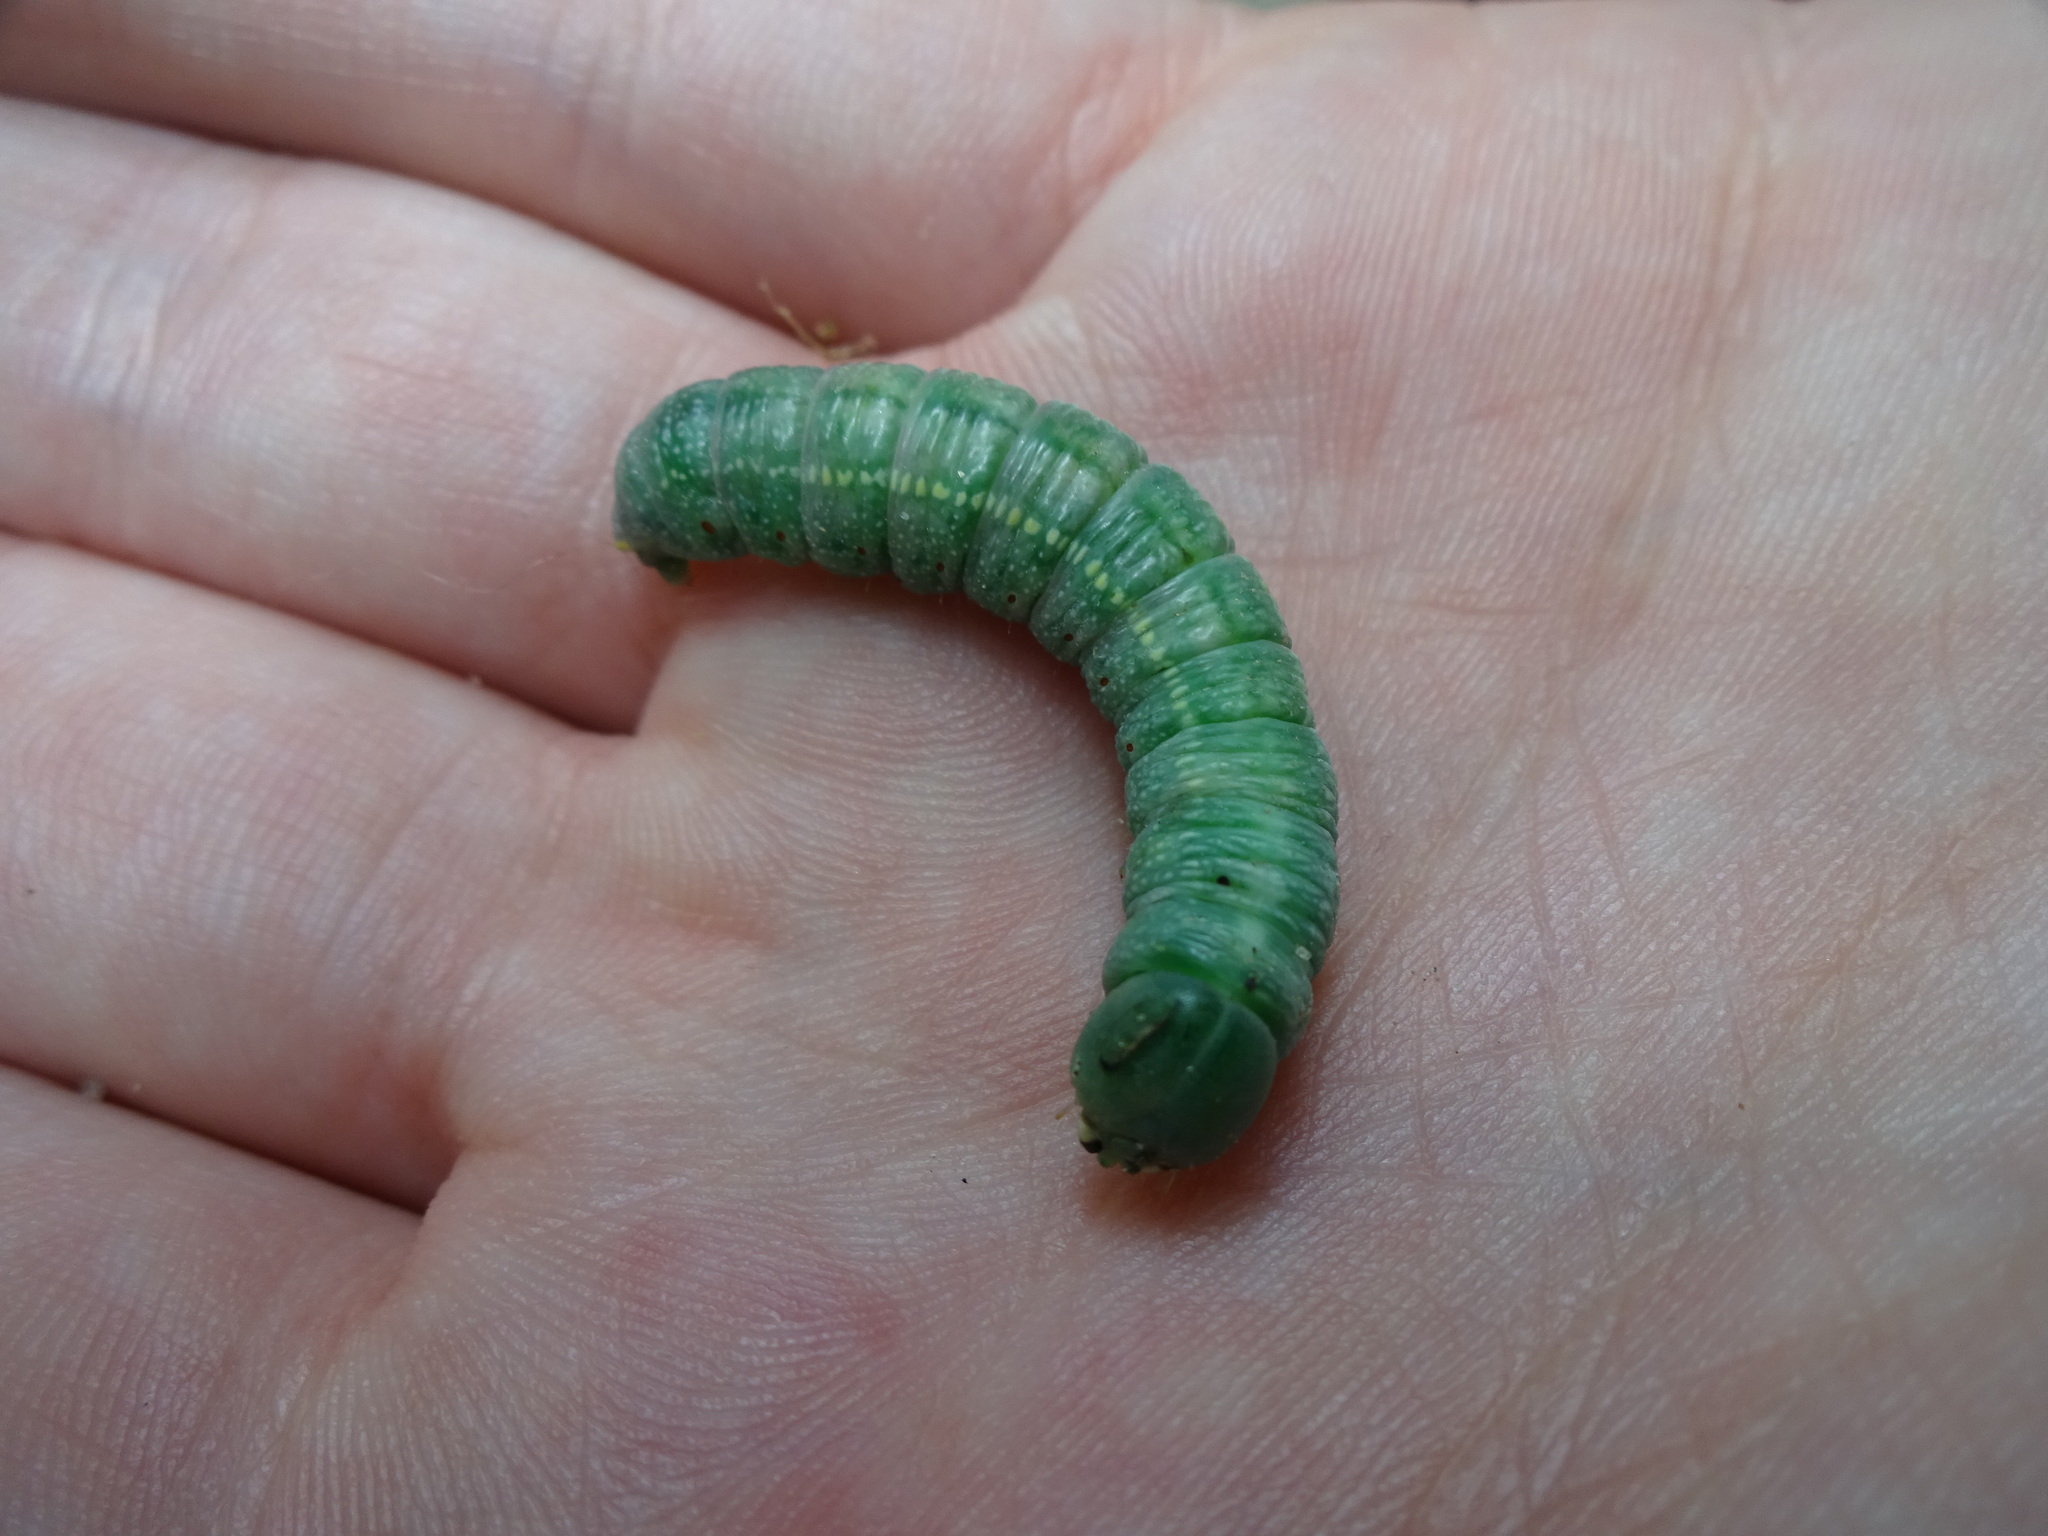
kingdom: Animalia
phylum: Arthropoda
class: Insecta
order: Lepidoptera
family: Notodontidae
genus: Nadata
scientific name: Nadata gibbosa
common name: White-dotted prominent
